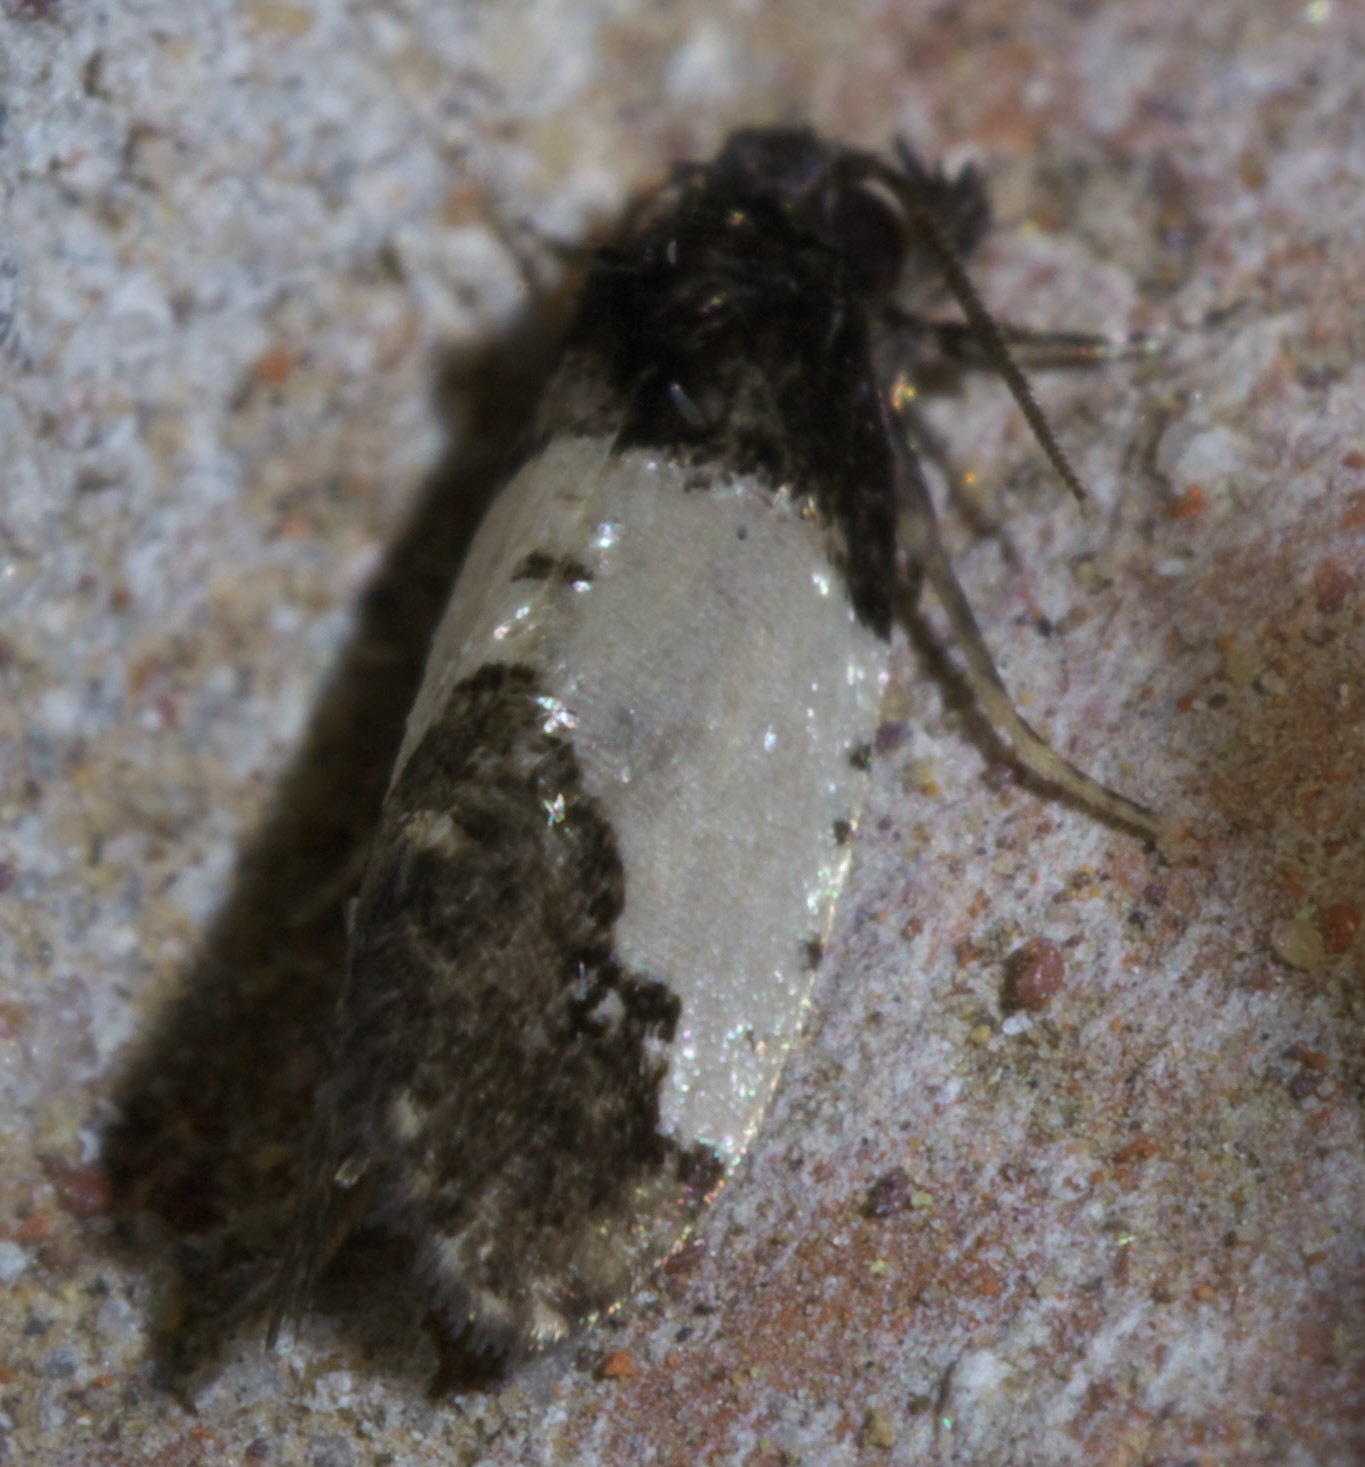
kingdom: Animalia
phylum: Arthropoda
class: Insecta
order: Lepidoptera
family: Psychidae
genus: Kearfottia
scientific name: Kearfottia albifasciella
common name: White-patched kearfottia
